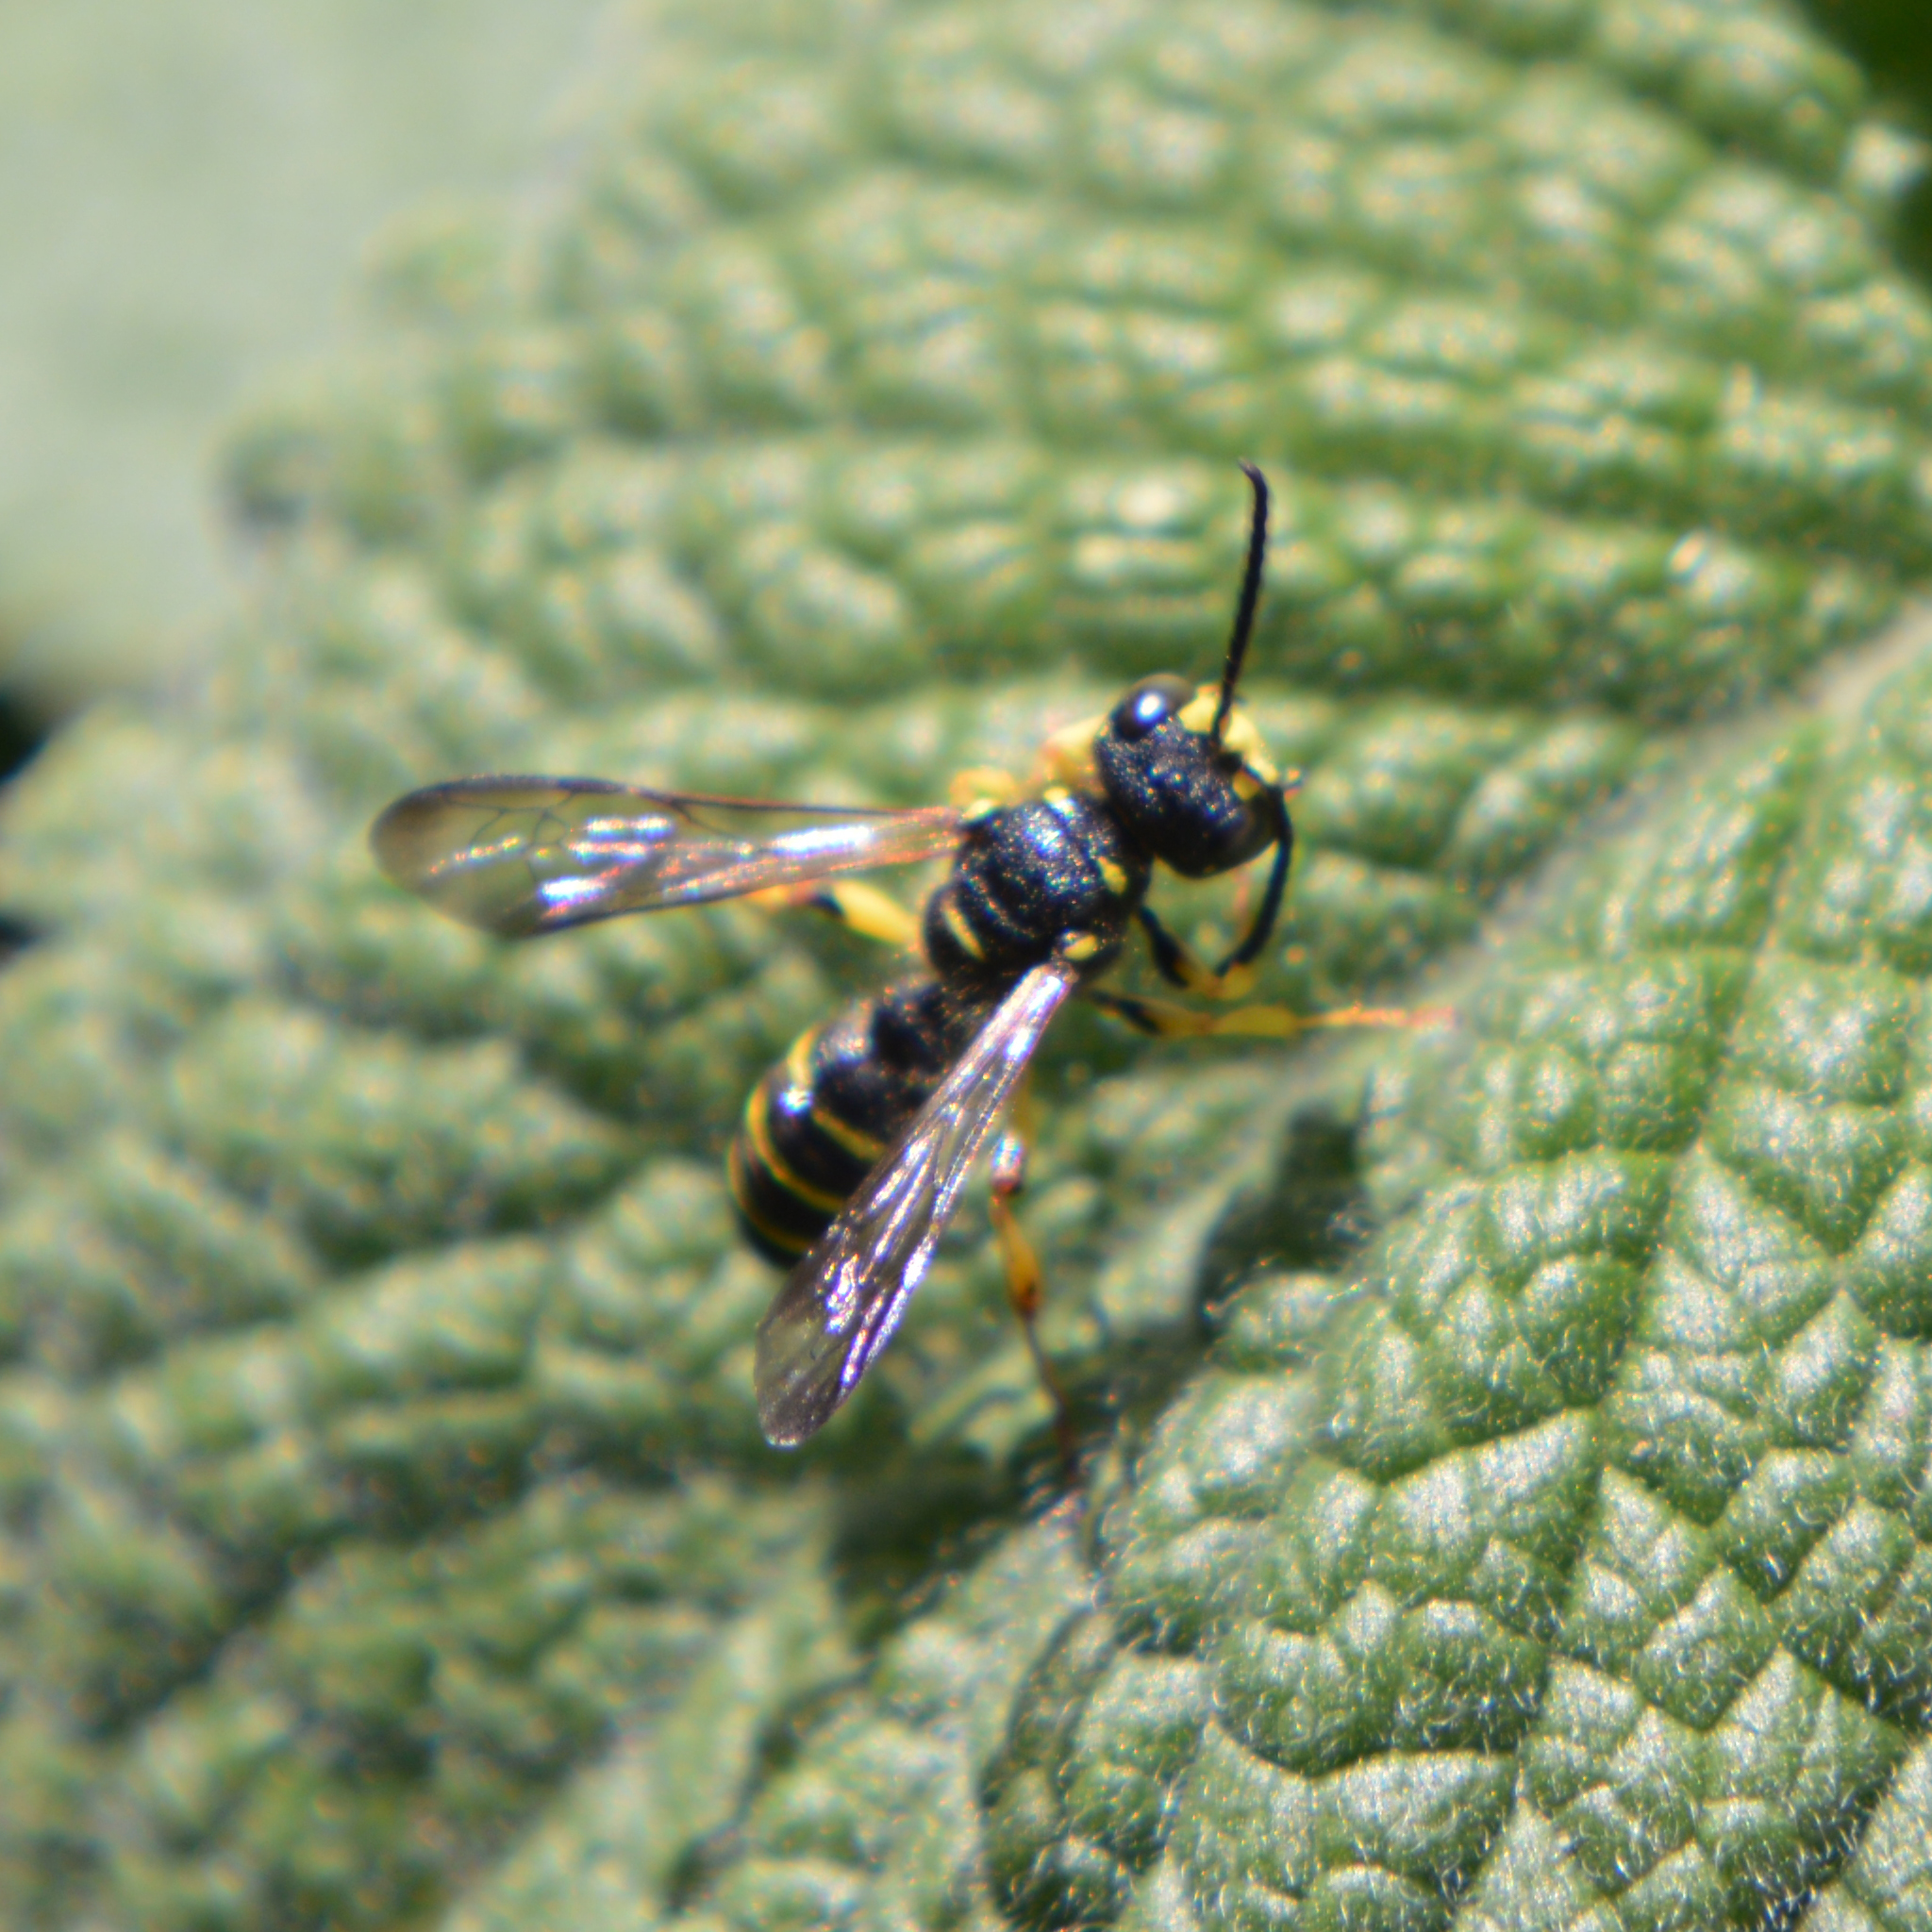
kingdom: Animalia
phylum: Arthropoda
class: Insecta
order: Hymenoptera
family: Crabronidae
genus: Cerceris
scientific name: Cerceris
